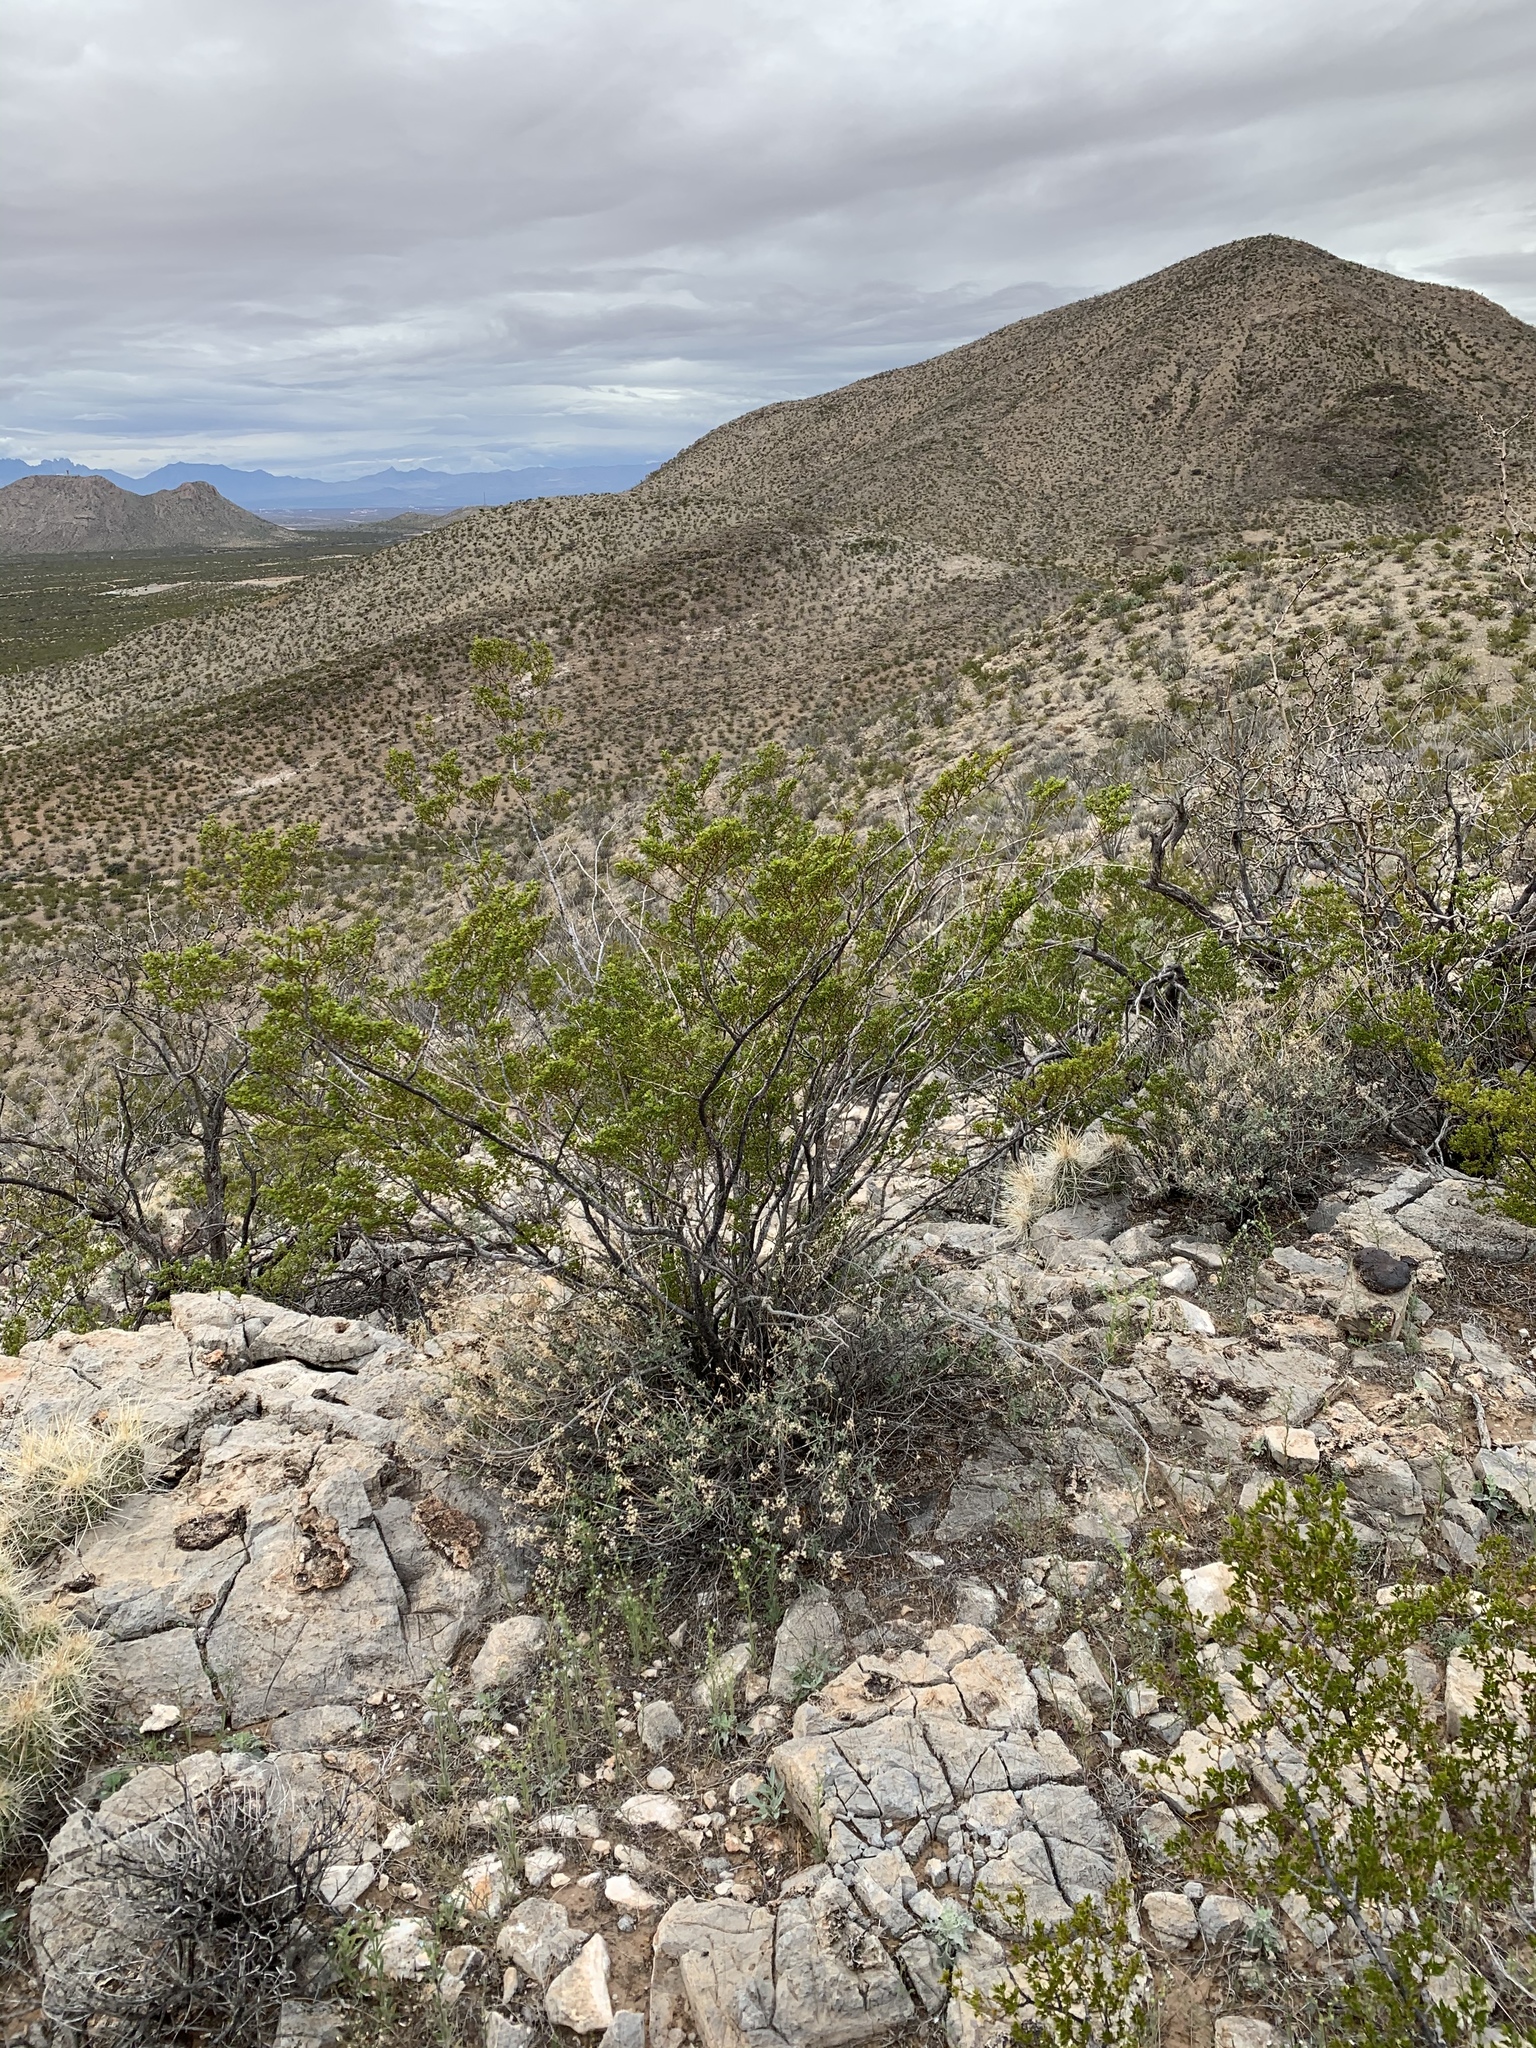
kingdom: Plantae
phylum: Tracheophyta
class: Magnoliopsida
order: Zygophyllales
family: Zygophyllaceae
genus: Larrea
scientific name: Larrea tridentata
